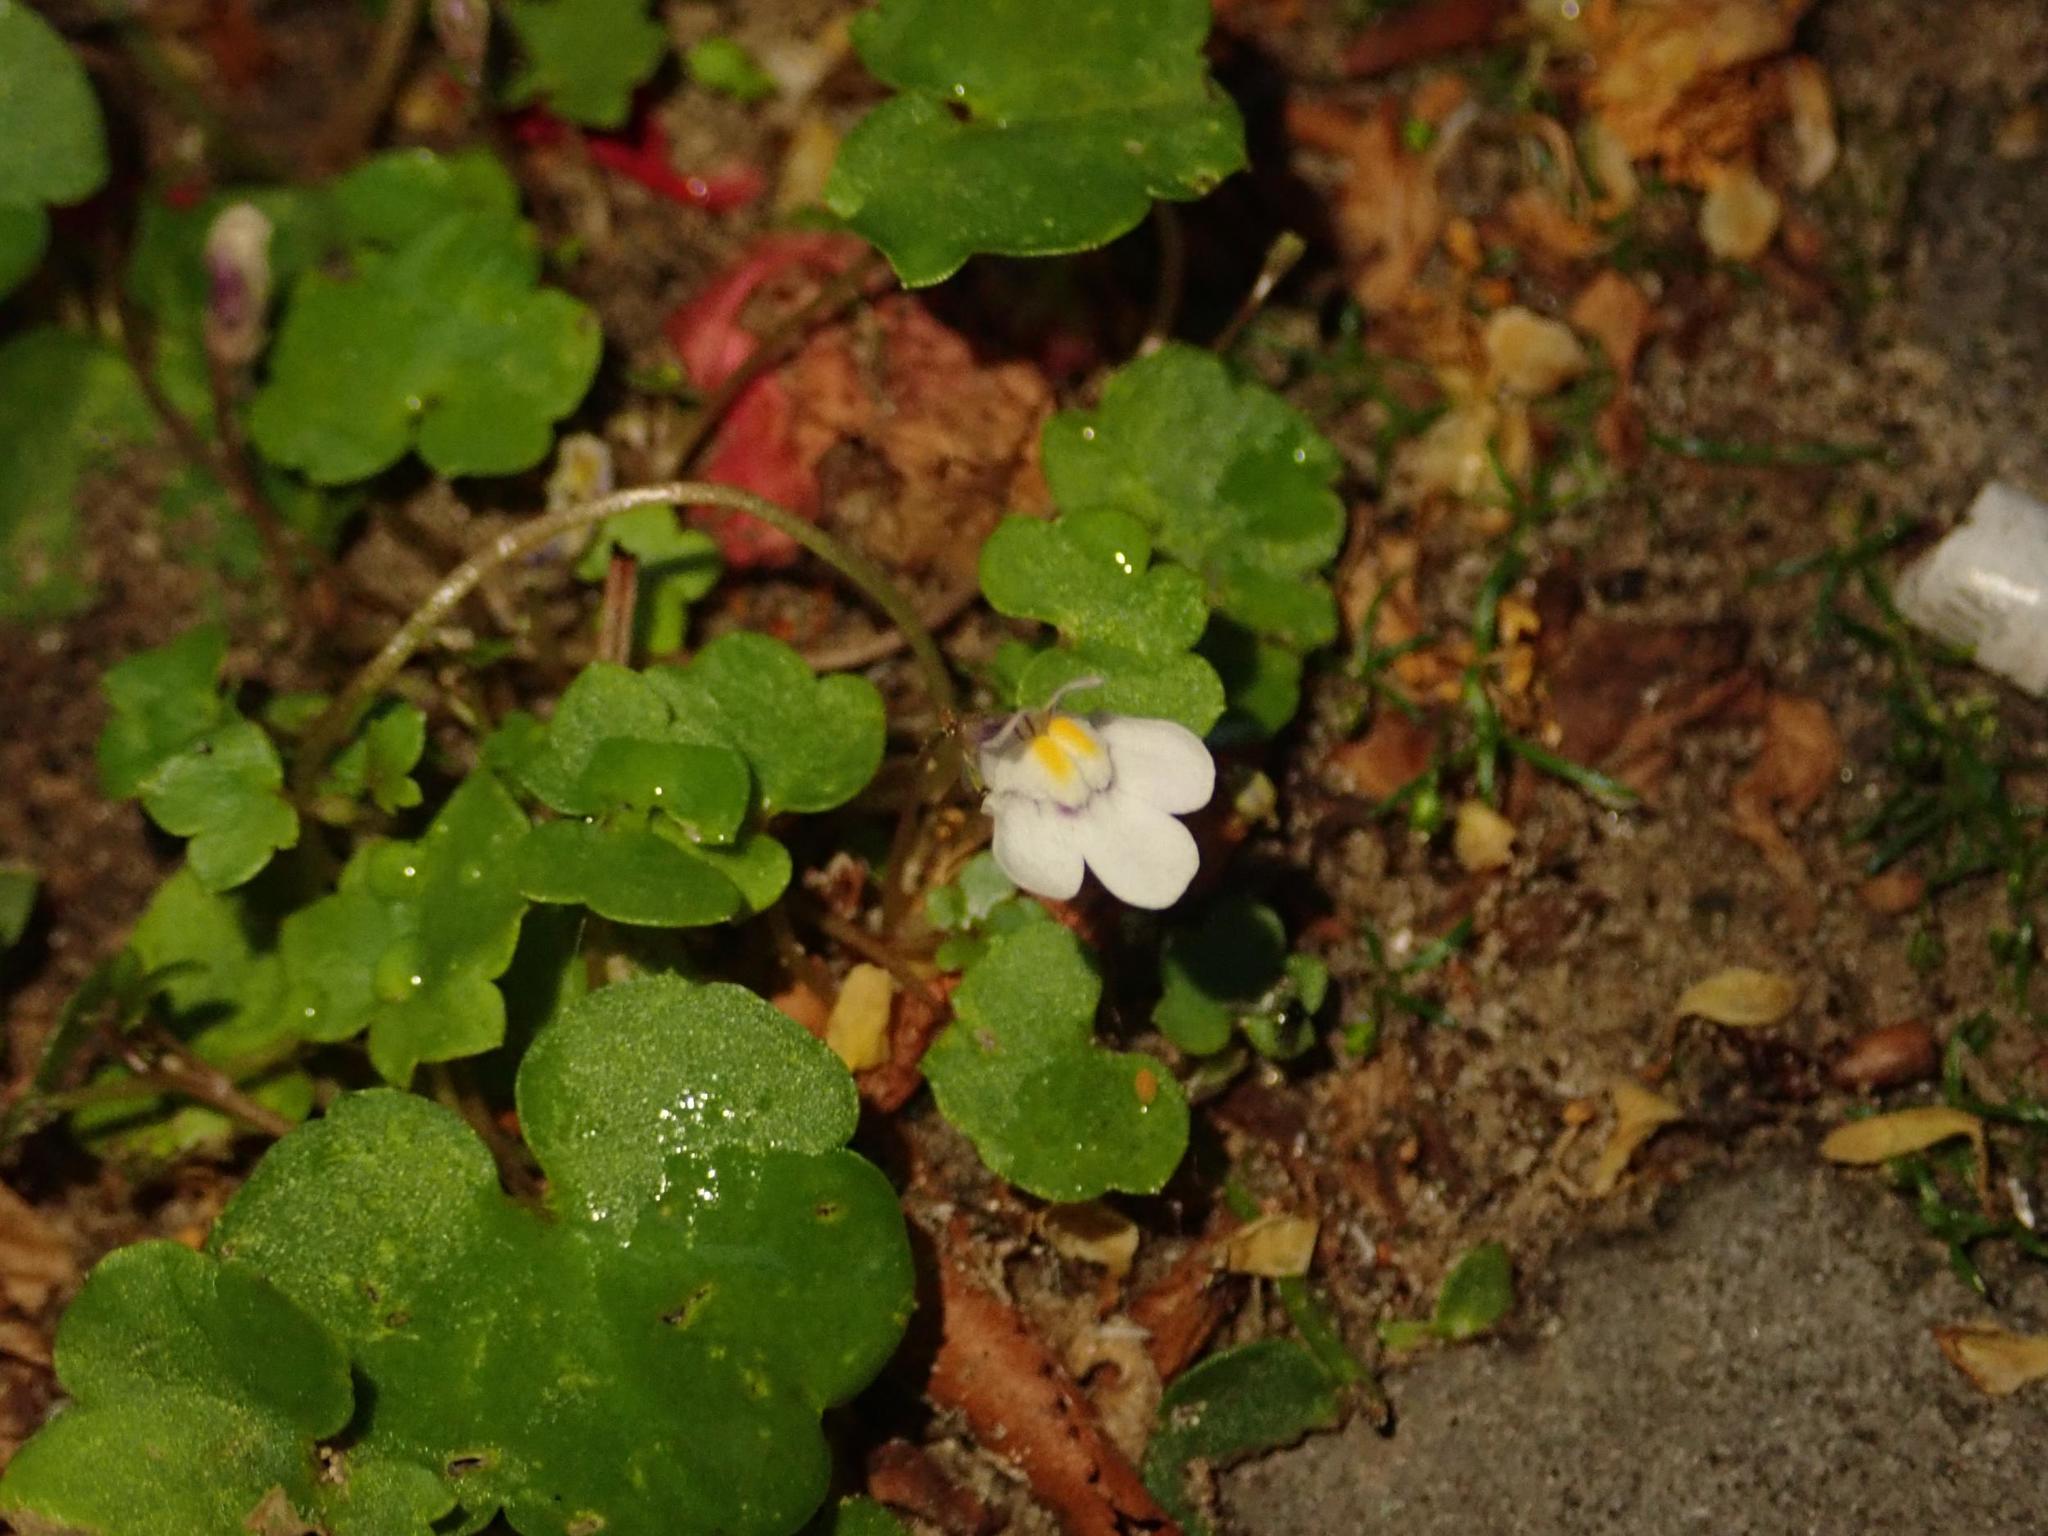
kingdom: Plantae
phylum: Tracheophyta
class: Magnoliopsida
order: Lamiales
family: Plantaginaceae
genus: Cymbalaria
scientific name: Cymbalaria muralis
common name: Ivy-leaved toadflax
